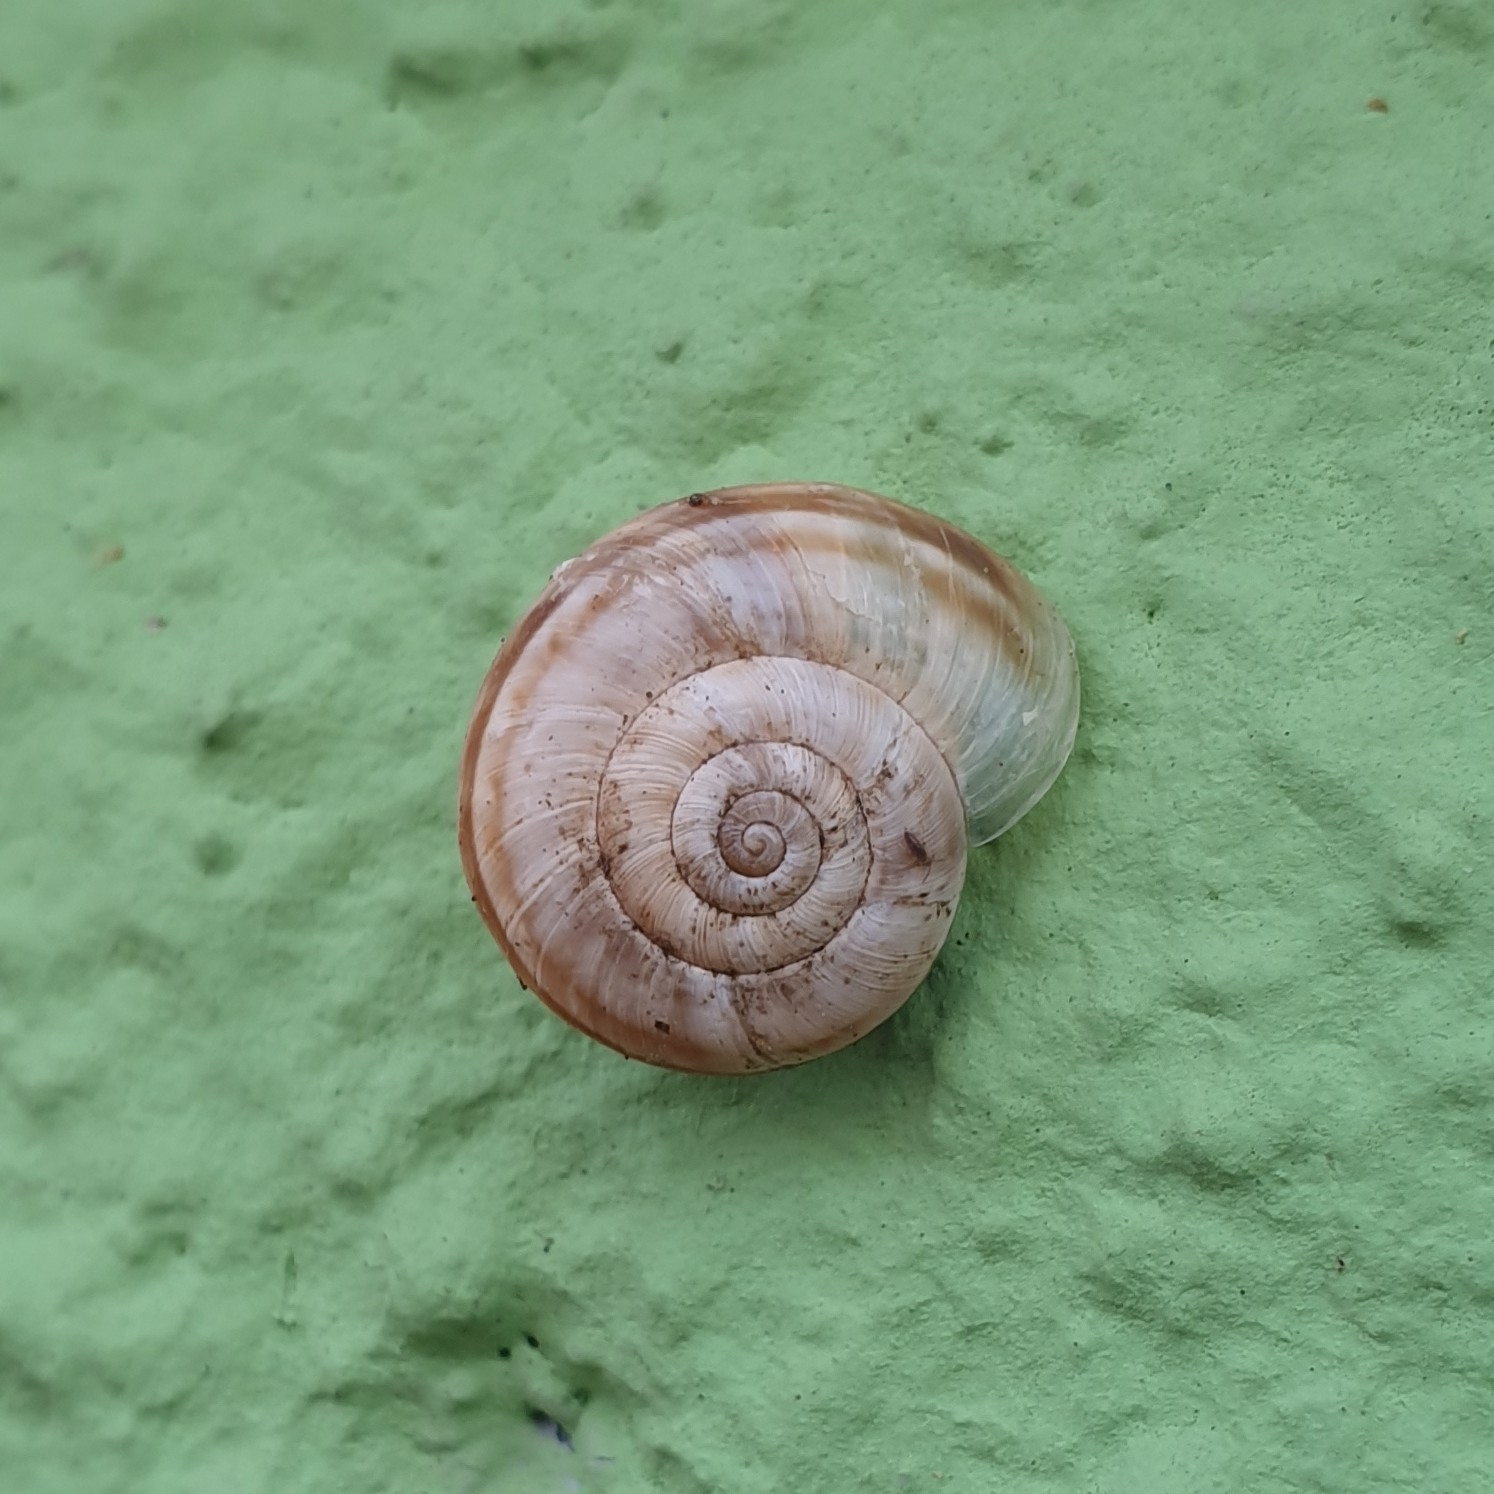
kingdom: Animalia
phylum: Mollusca
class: Gastropoda
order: Stylommatophora
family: Geomitridae
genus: Xerolenta
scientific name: Xerolenta obvia
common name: White heath snail
